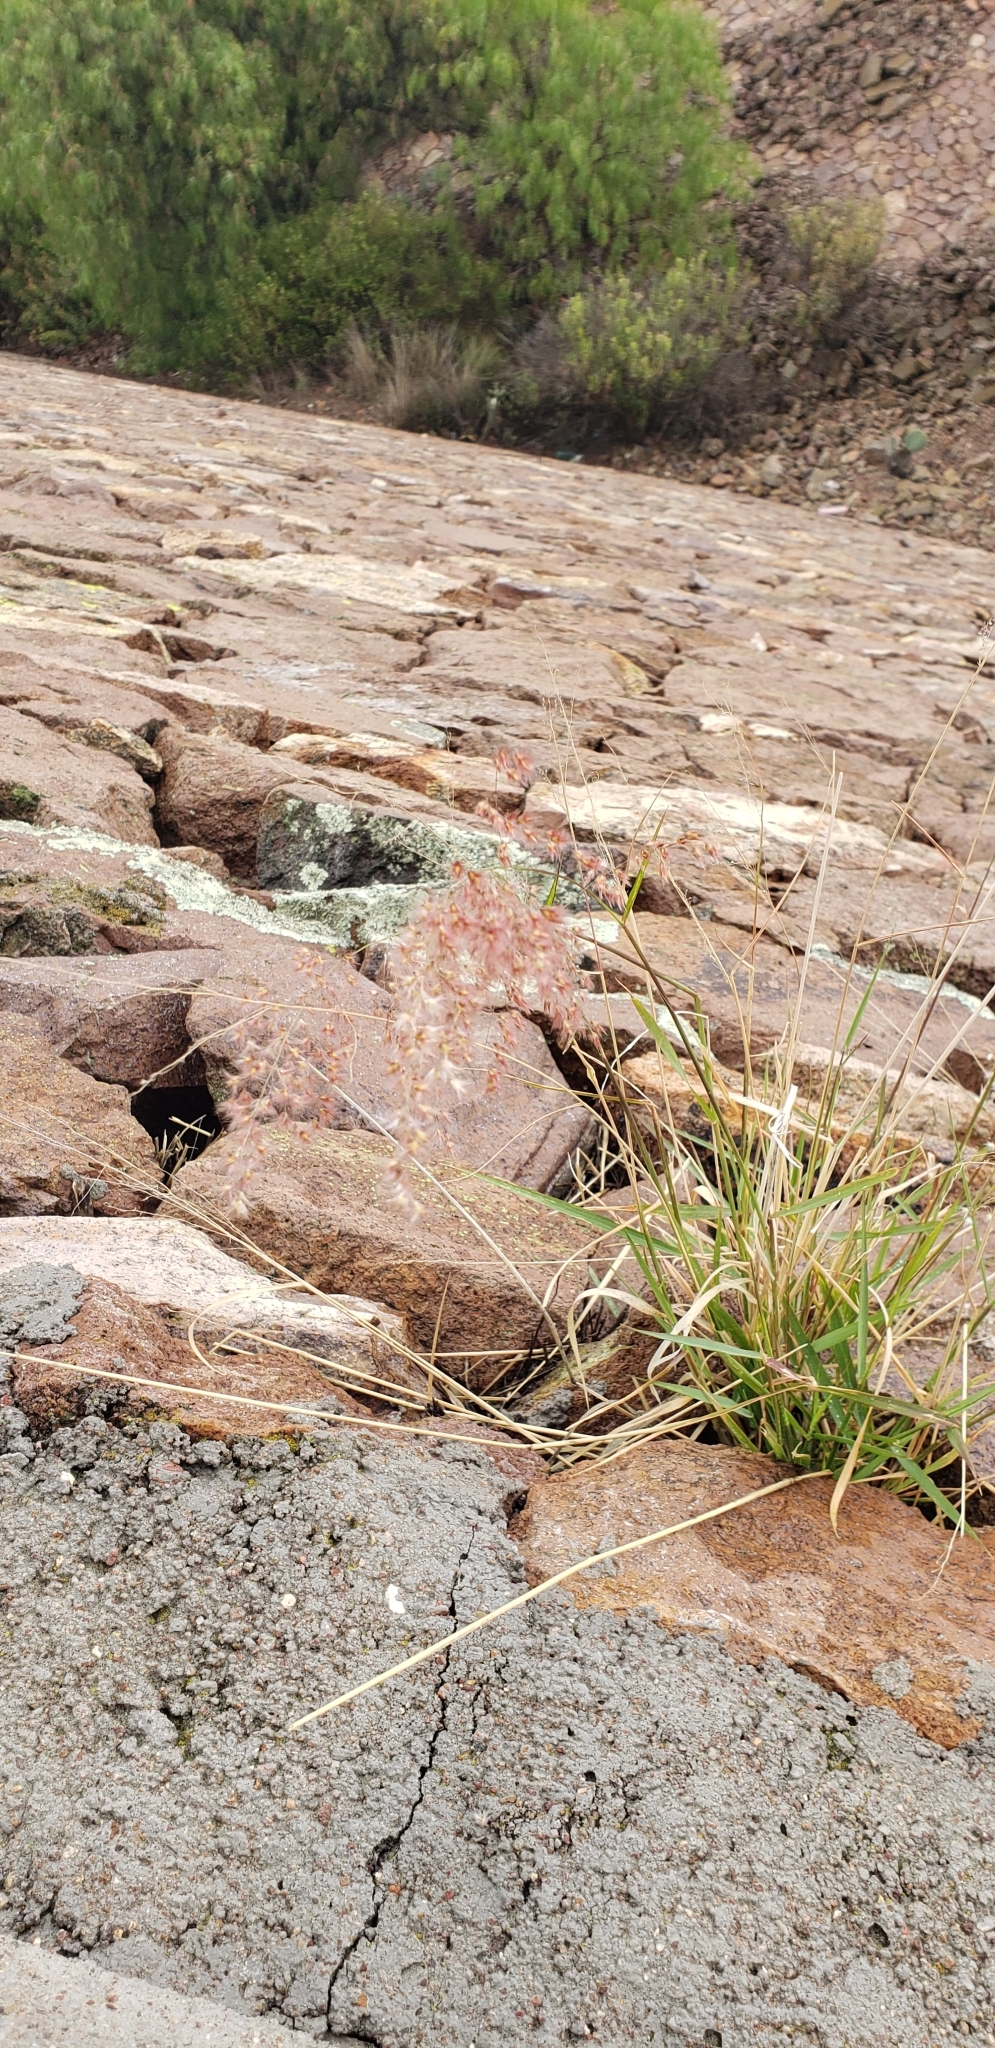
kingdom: Plantae
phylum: Tracheophyta
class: Liliopsida
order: Poales
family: Poaceae
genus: Melinis
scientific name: Melinis repens
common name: Rose natal grass
